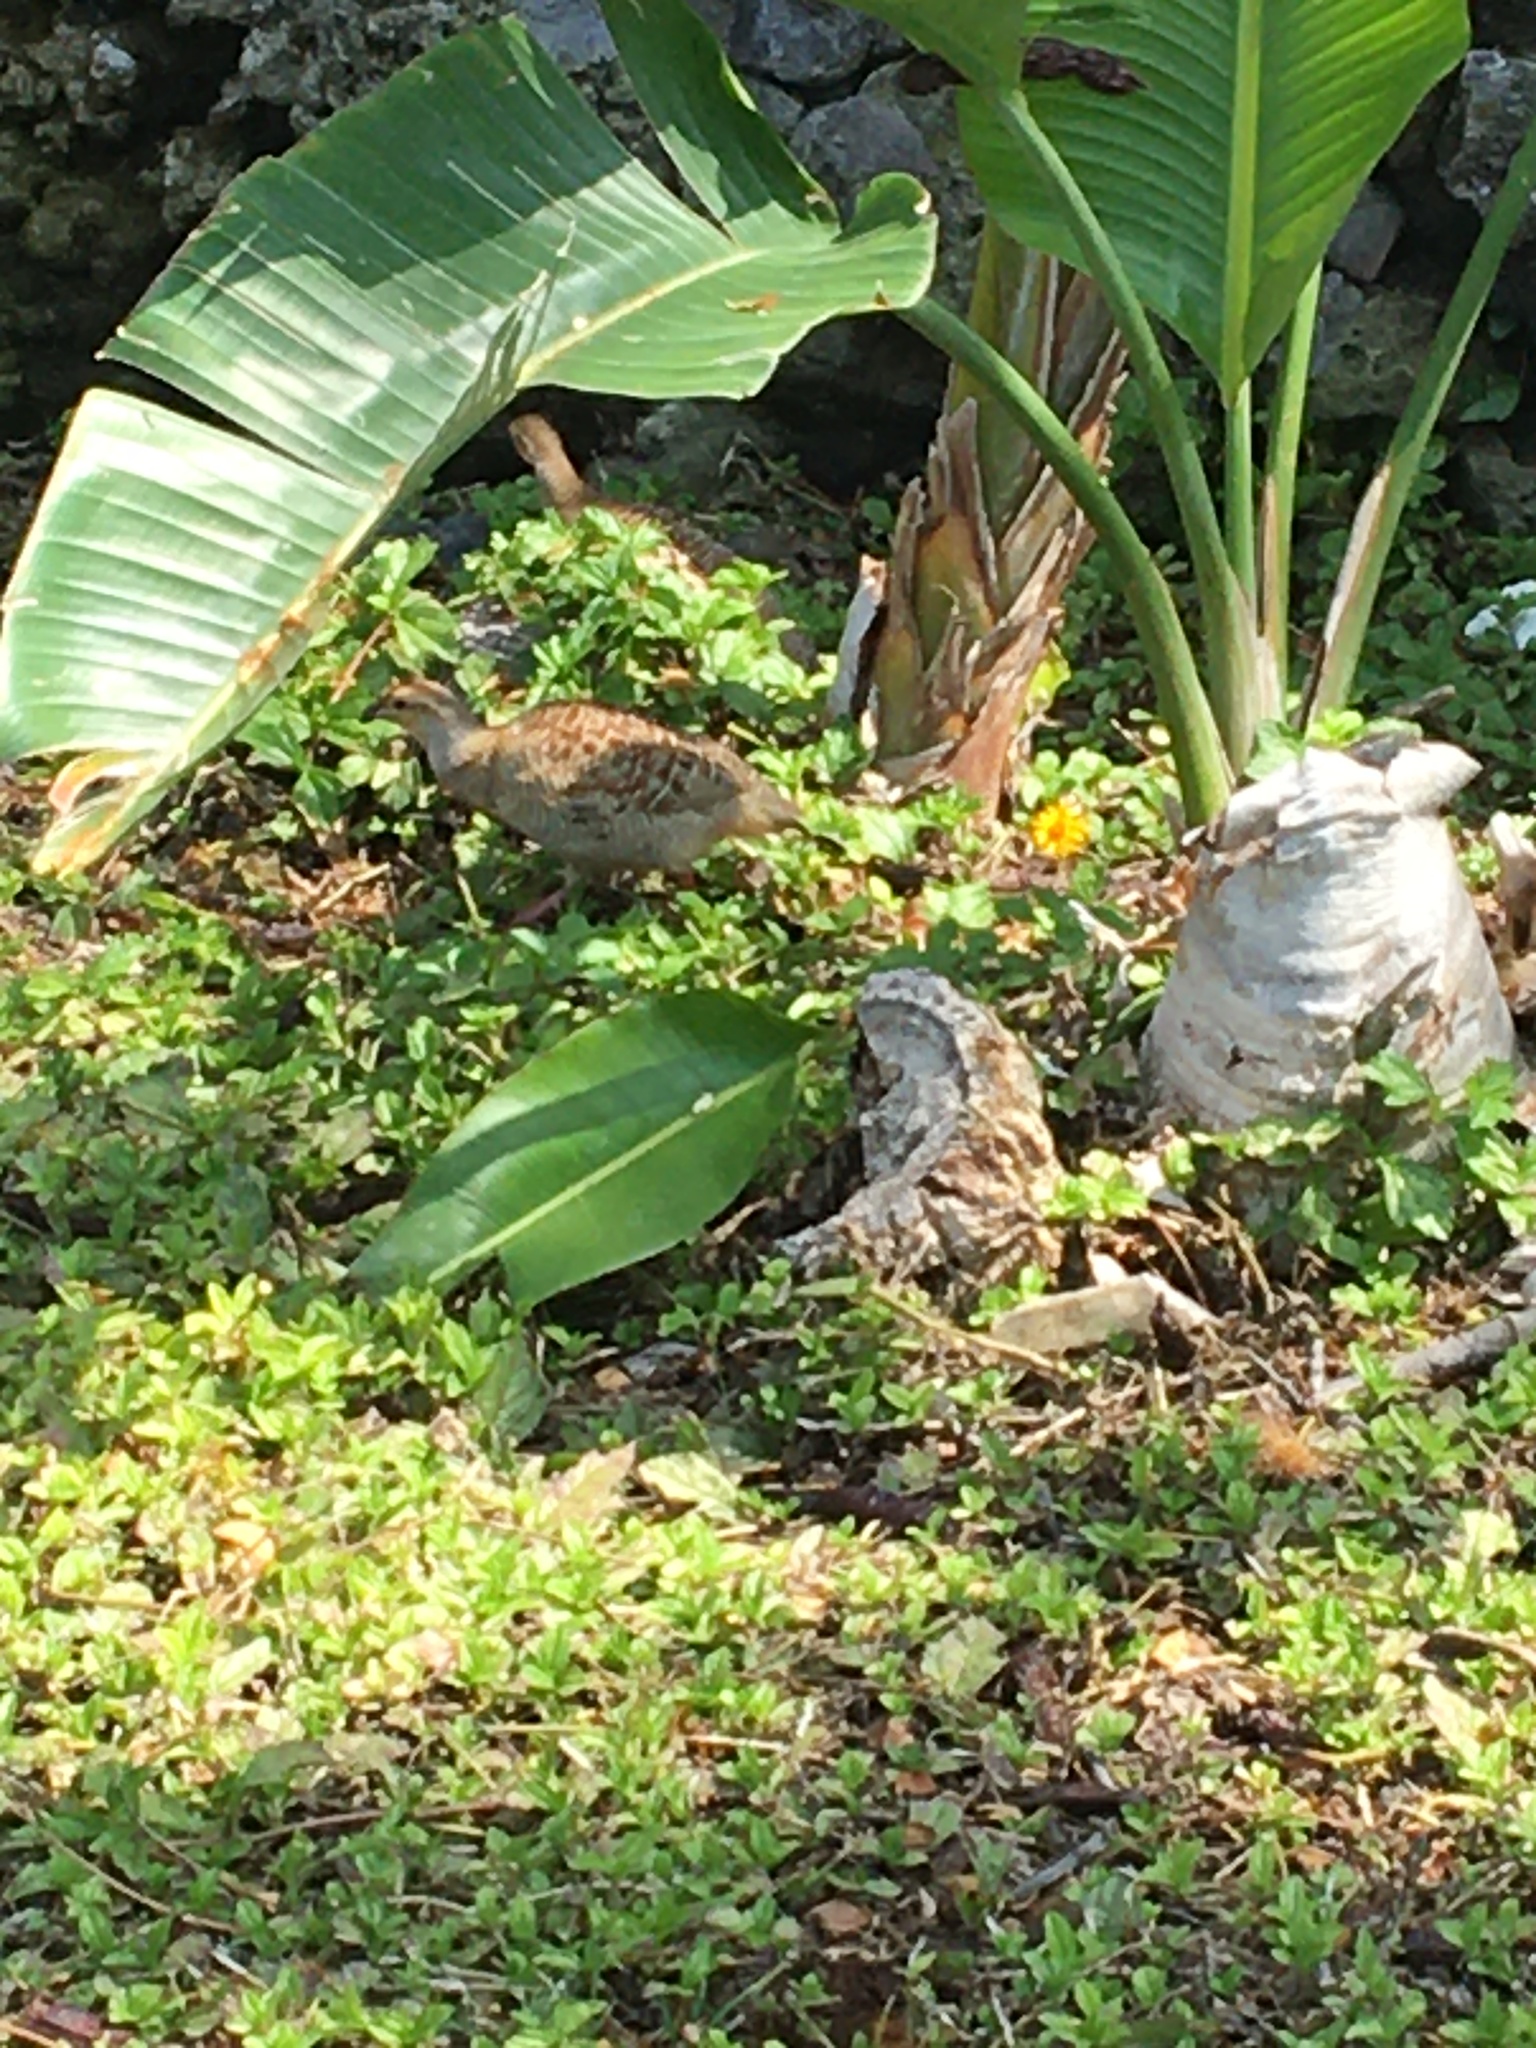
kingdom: Animalia
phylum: Chordata
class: Aves
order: Galliformes
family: Phasianidae
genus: Ortygornis
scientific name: Ortygornis pondicerianus
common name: Grey francolin
